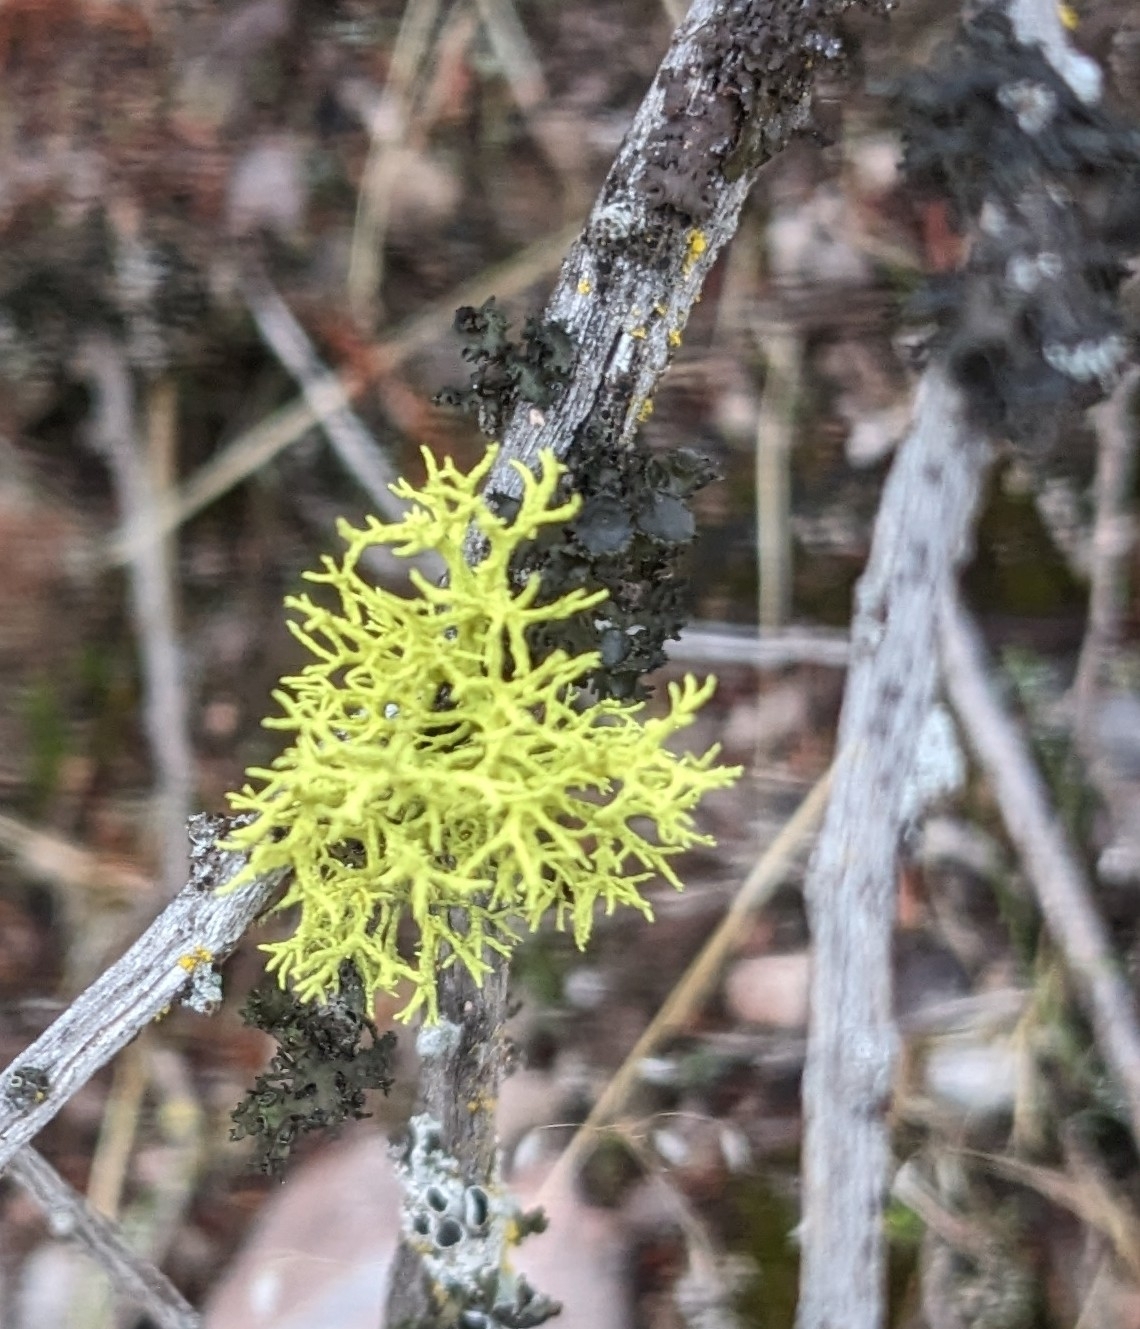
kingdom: Fungi
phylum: Ascomycota
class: Lecanoromycetes
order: Lecanorales
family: Parmeliaceae
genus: Letharia
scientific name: Letharia vulpina
